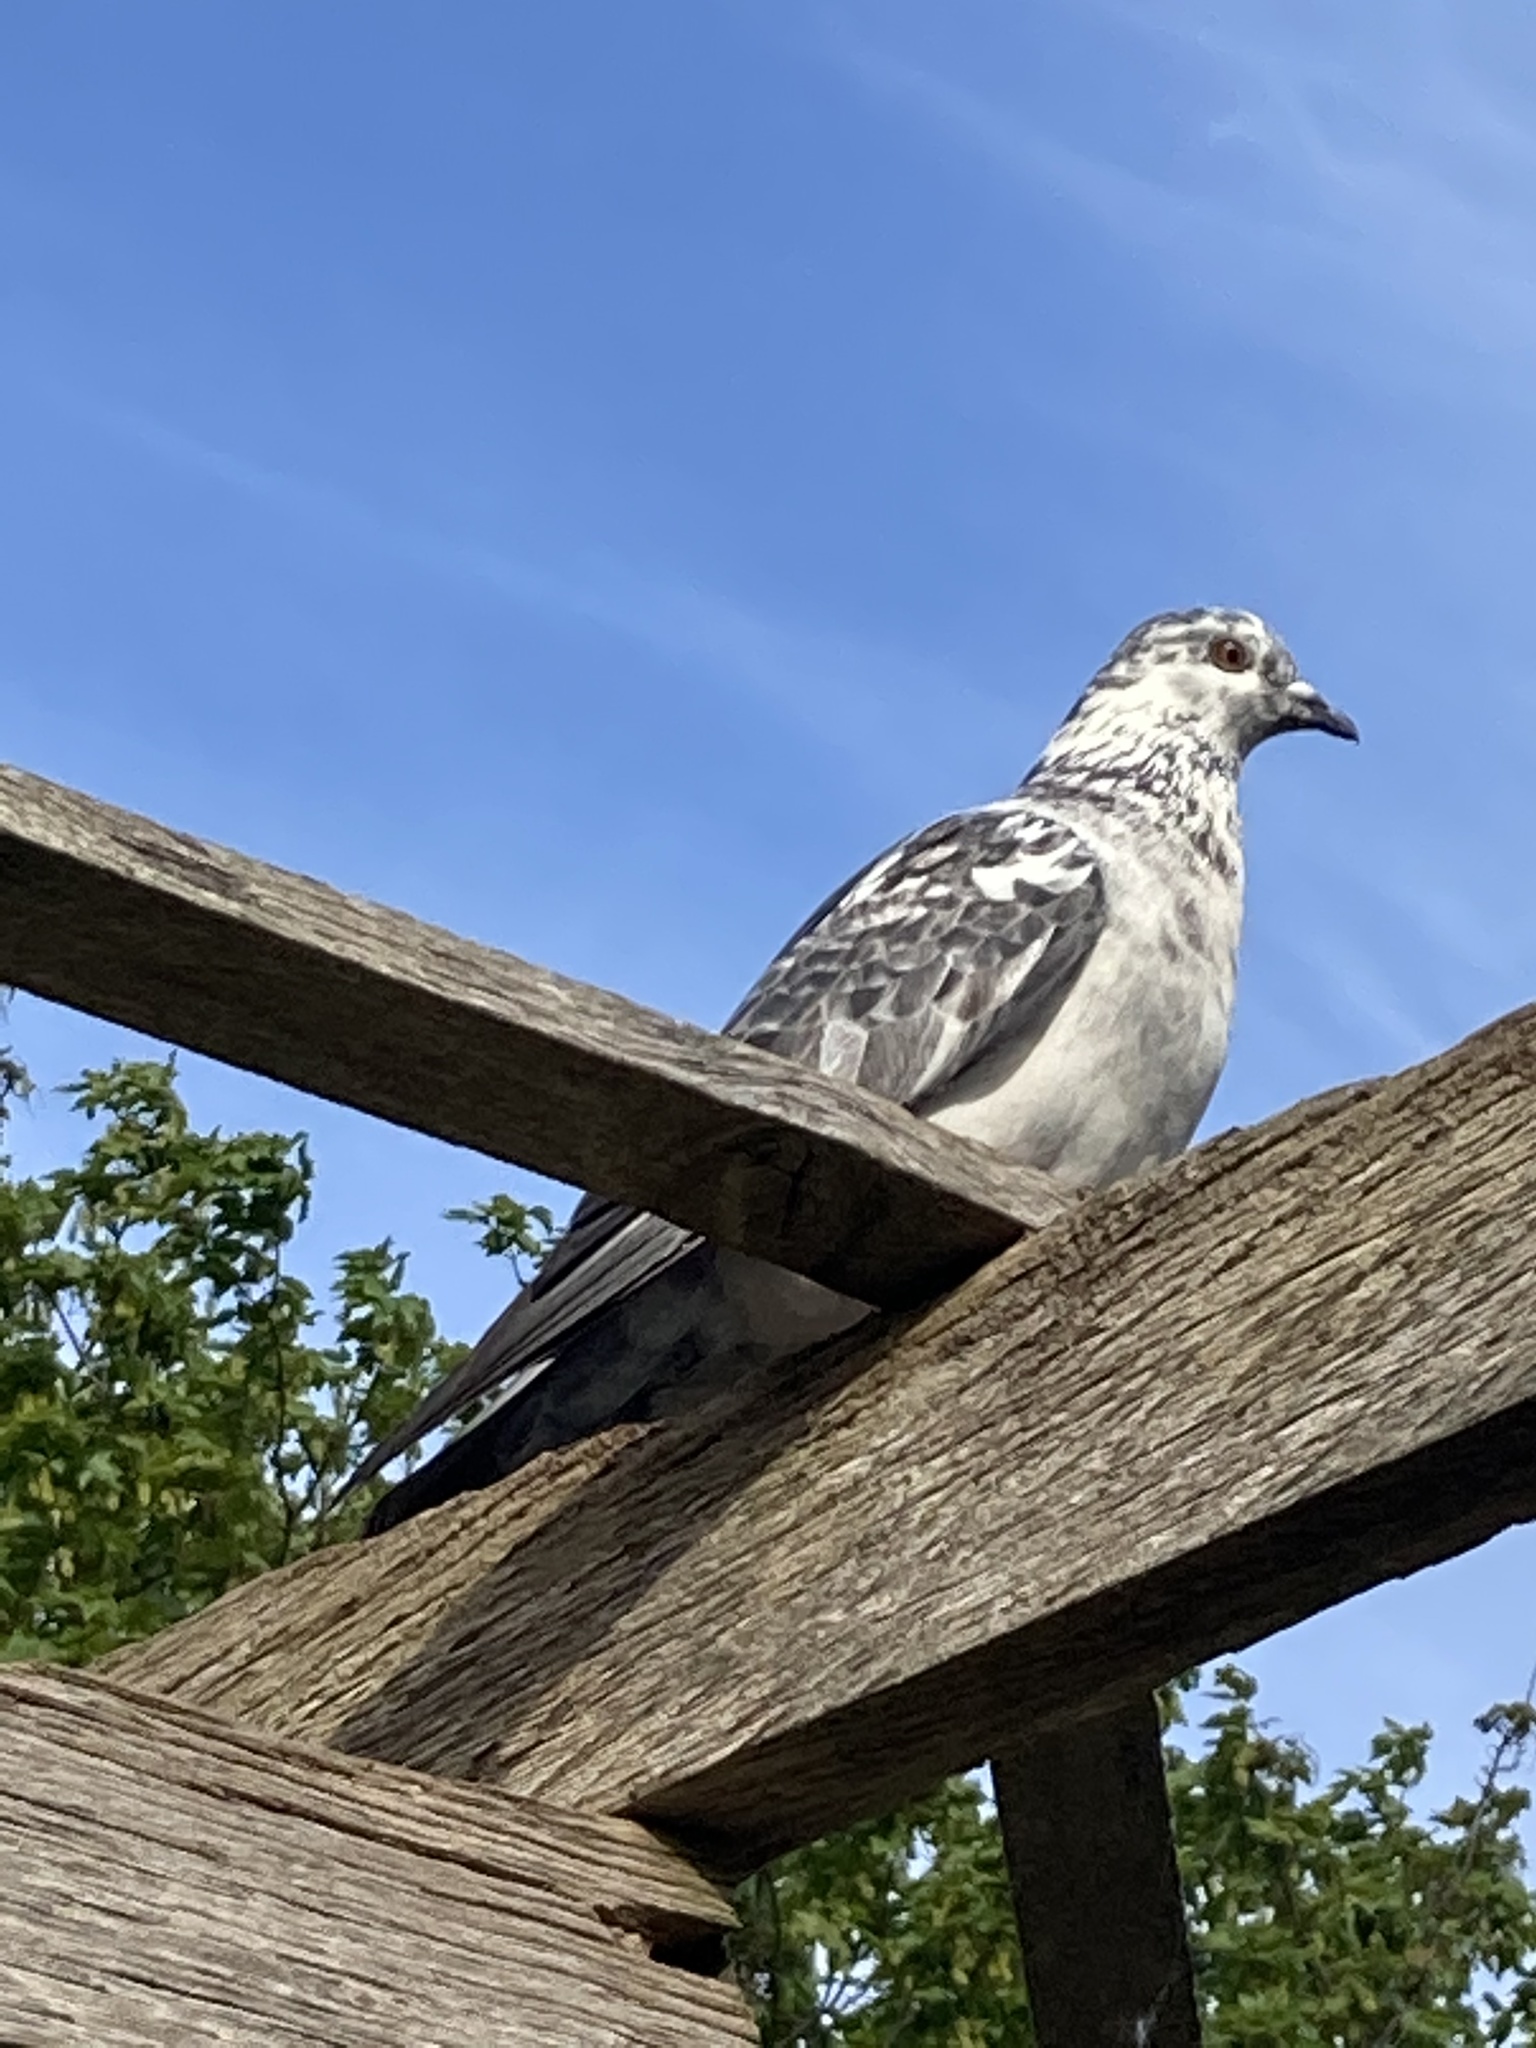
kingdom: Animalia
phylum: Chordata
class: Aves
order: Columbiformes
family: Columbidae
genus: Columba
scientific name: Columba livia
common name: Rock pigeon
